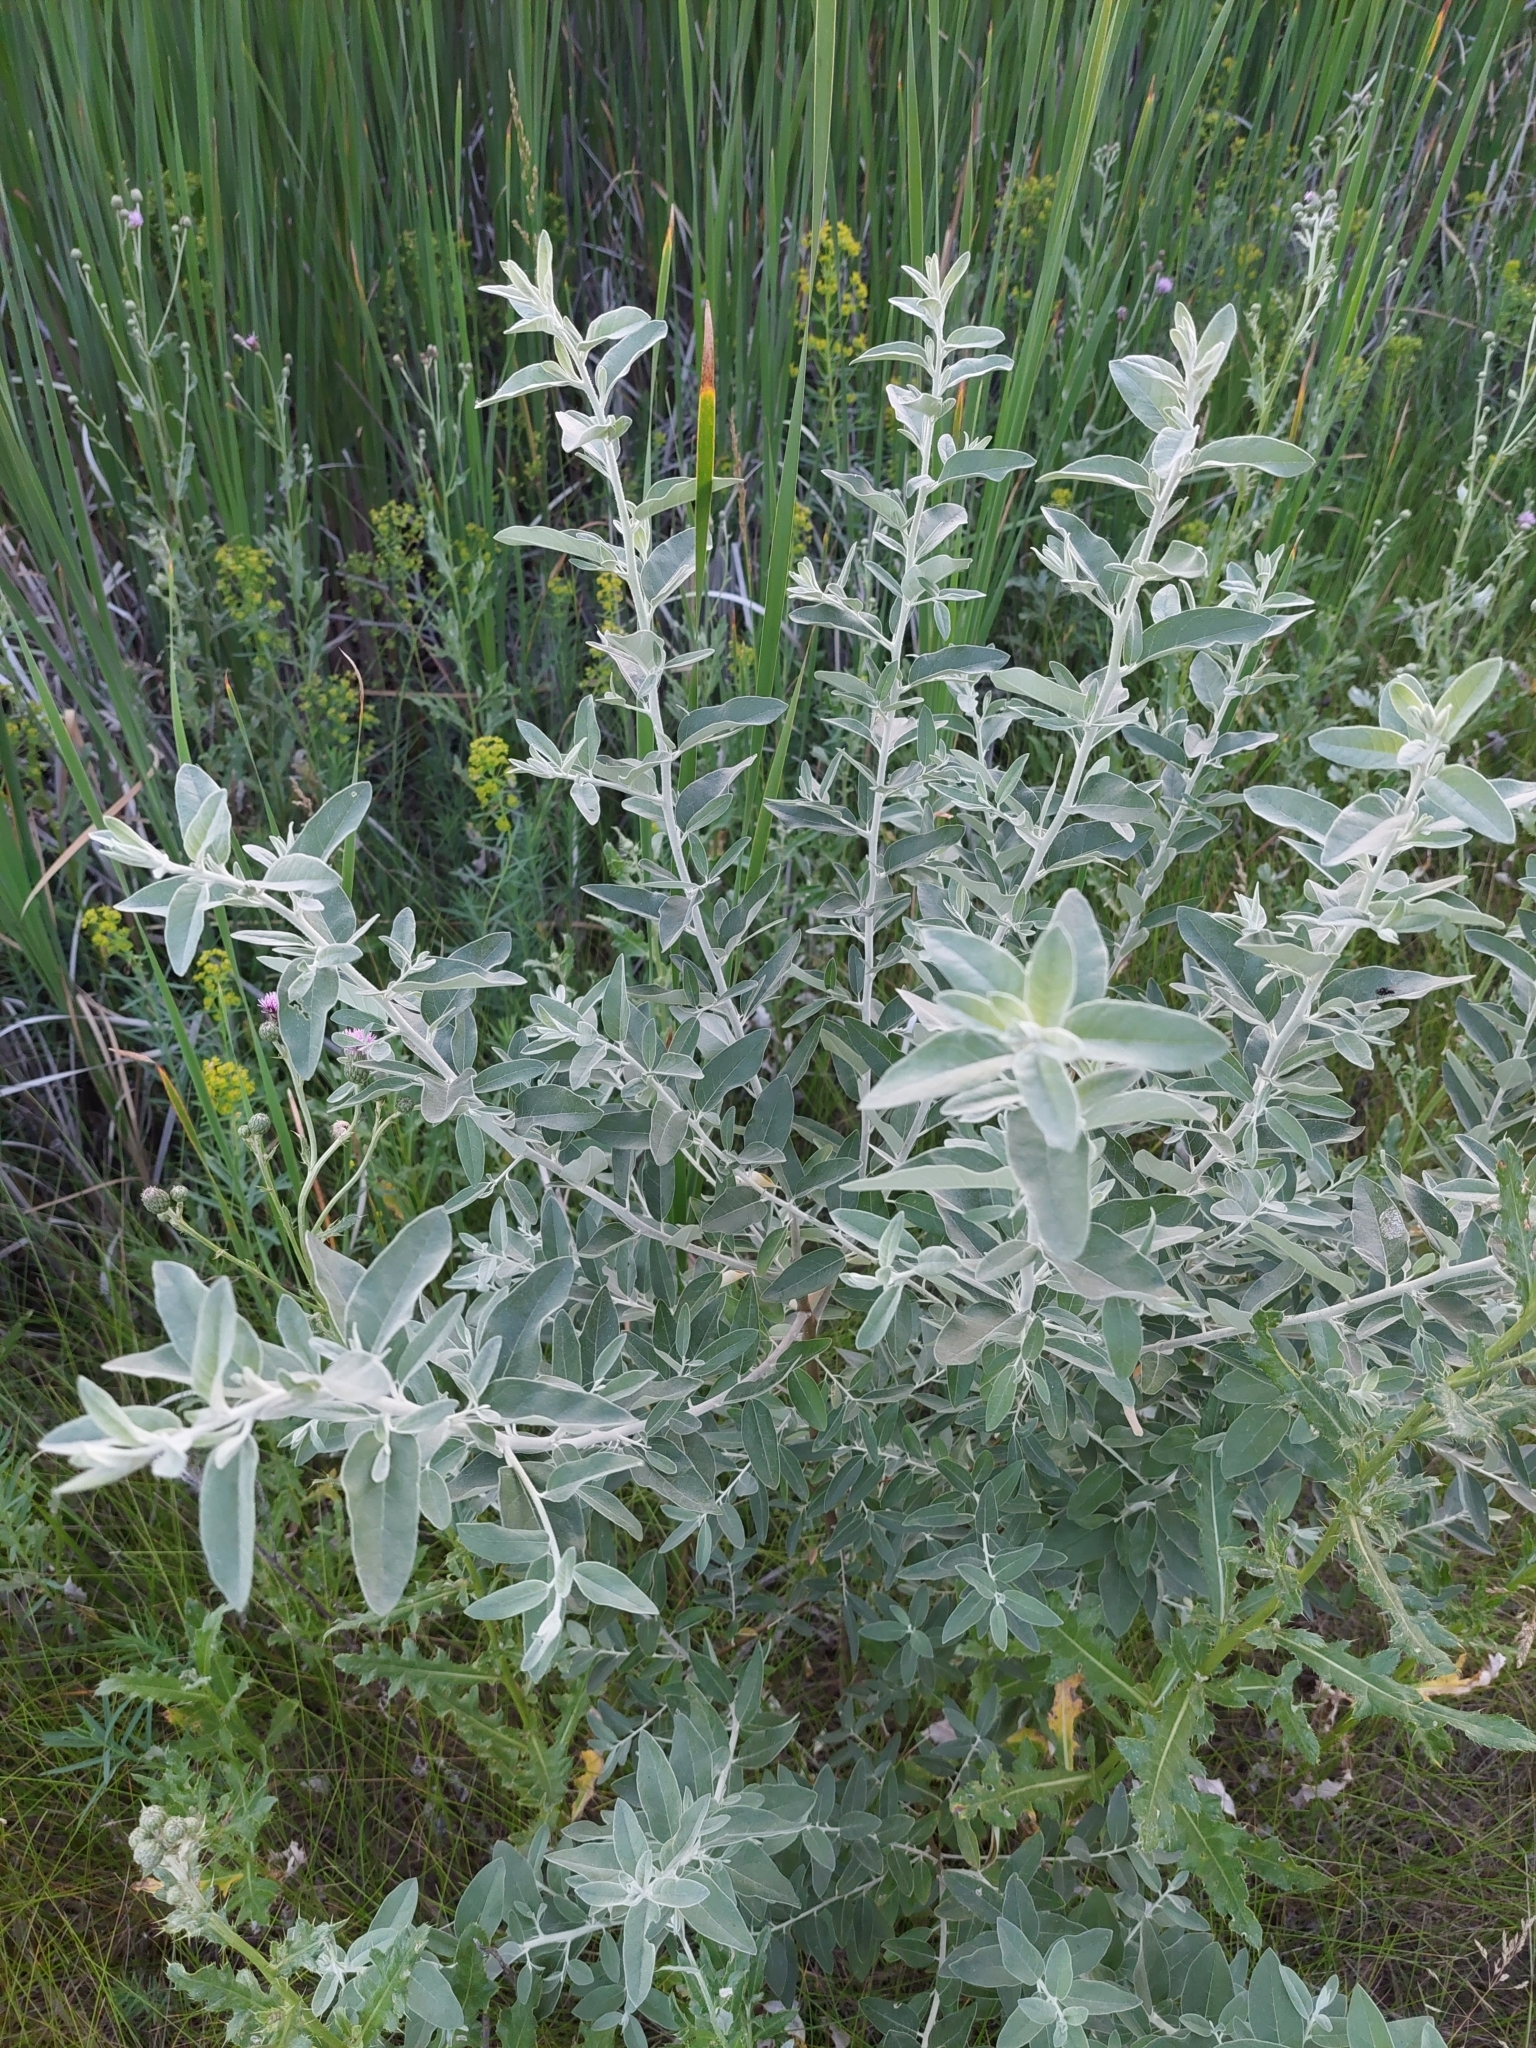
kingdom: Plantae
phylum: Tracheophyta
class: Magnoliopsida
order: Rosales
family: Elaeagnaceae
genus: Elaeagnus
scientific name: Elaeagnus angustifolia
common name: Russian olive
